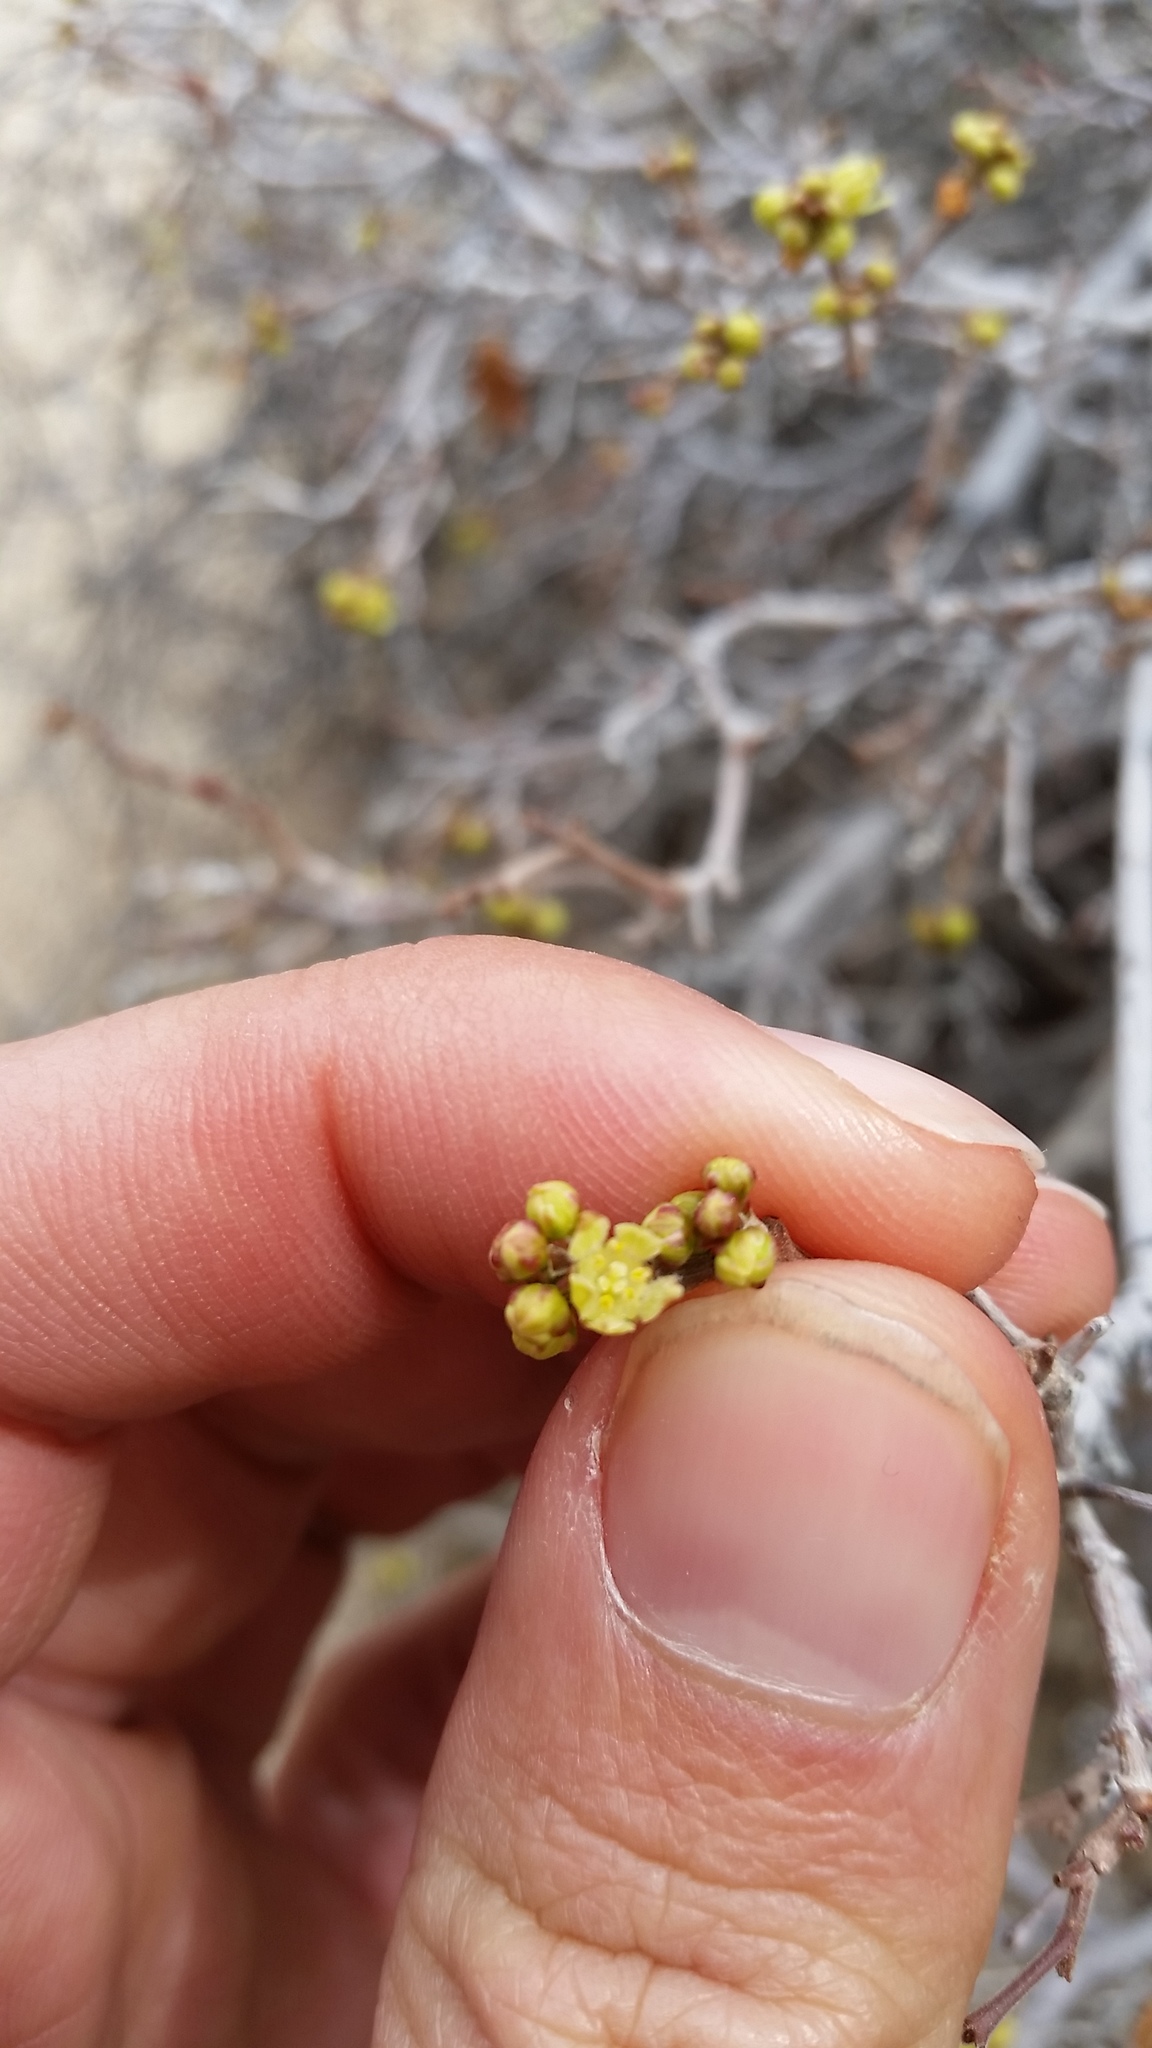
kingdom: Plantae
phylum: Tracheophyta
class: Magnoliopsida
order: Sapindales
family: Anacardiaceae
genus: Rhus
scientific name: Rhus aromatica
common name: Aromatic sumac
